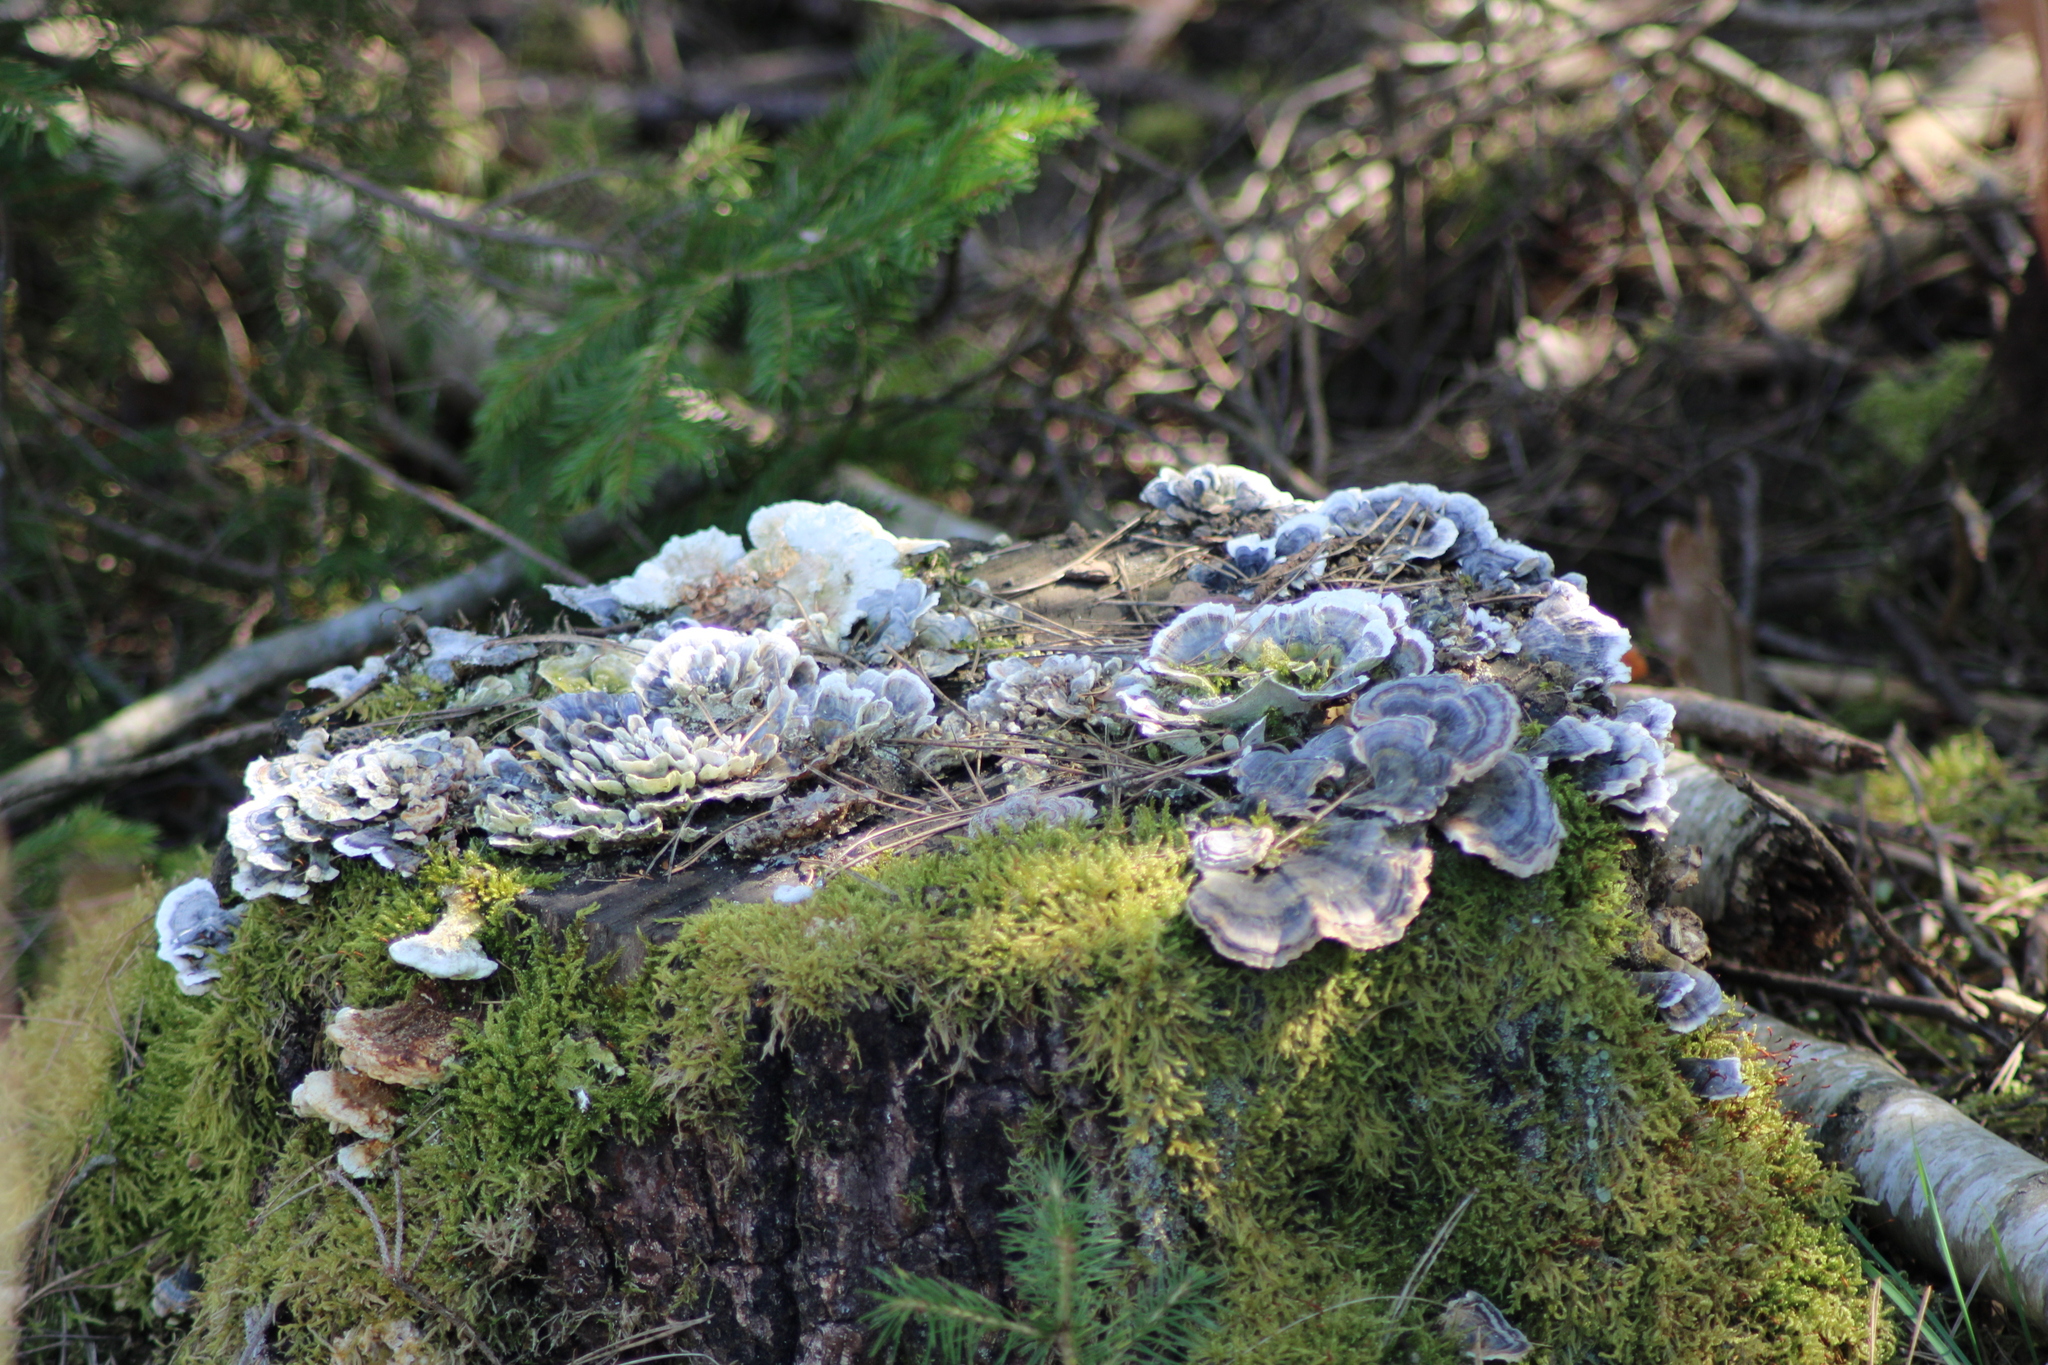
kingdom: Fungi
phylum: Basidiomycota
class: Agaricomycetes
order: Polyporales
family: Polyporaceae
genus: Trametes
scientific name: Trametes versicolor
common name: Turkeytail
